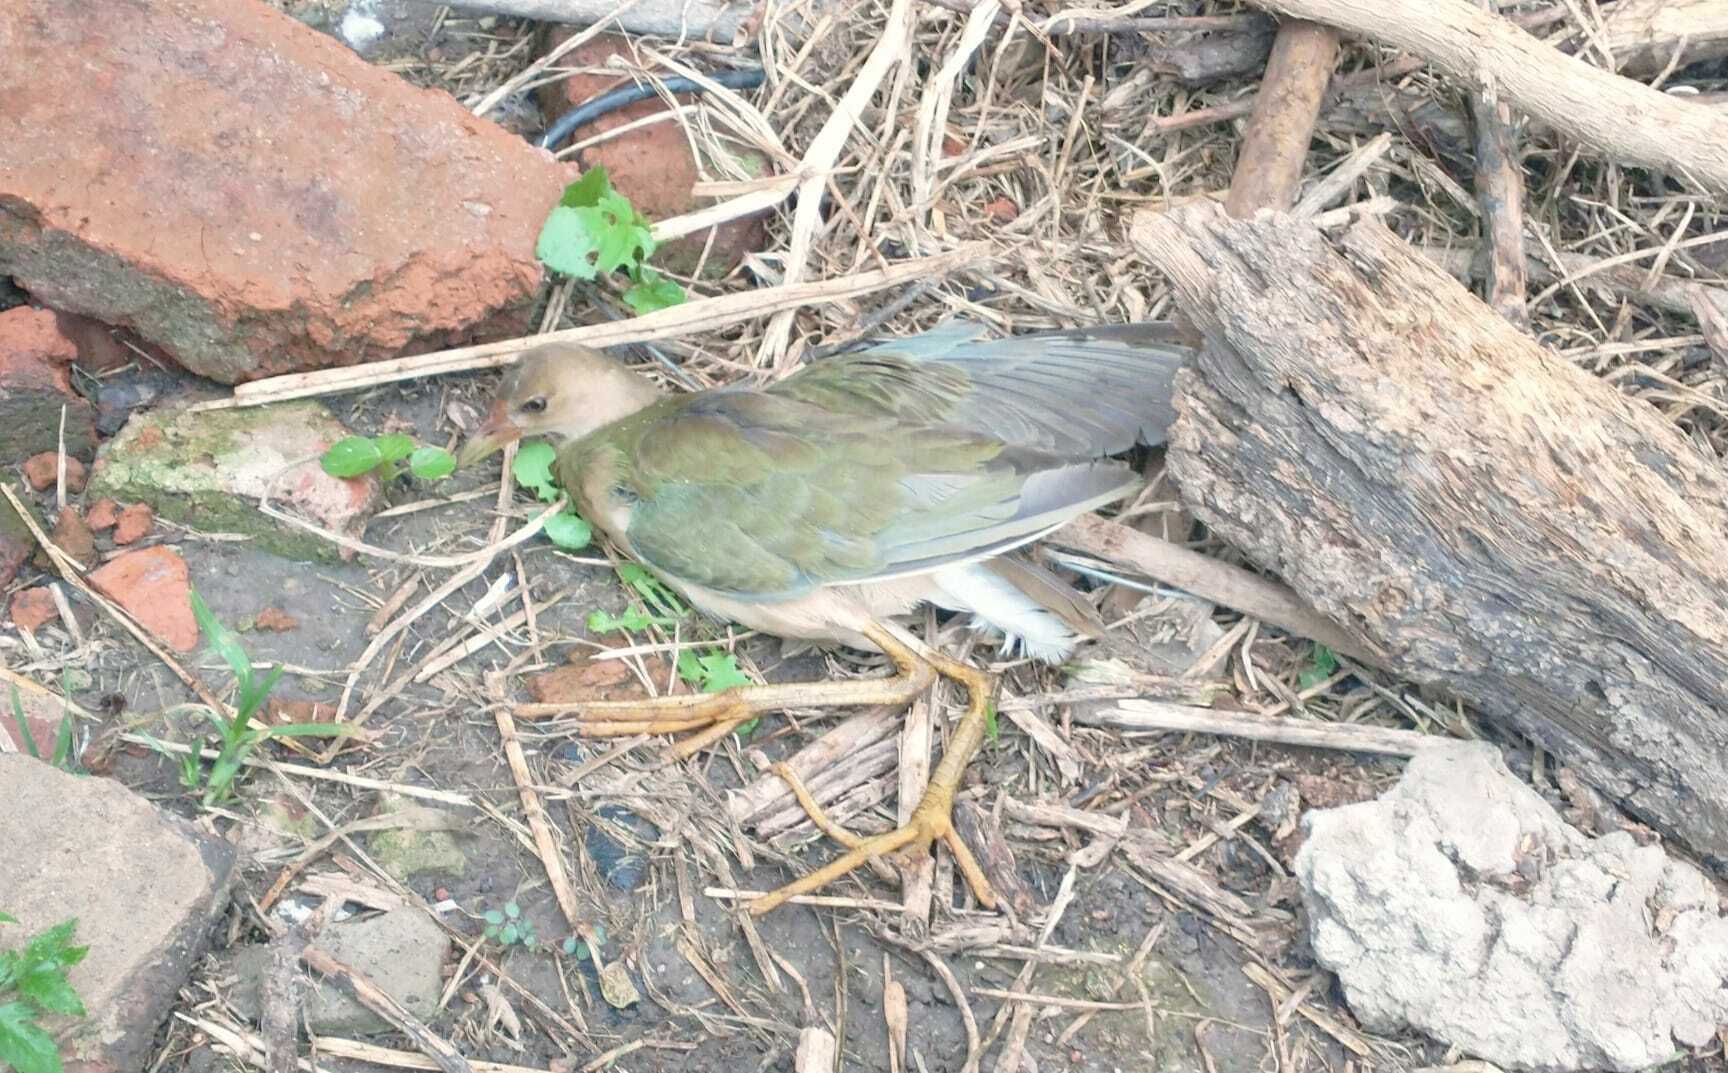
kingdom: Animalia
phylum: Chordata
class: Aves
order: Gruiformes
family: Rallidae
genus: Porphyrio
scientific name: Porphyrio martinica
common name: Purple gallinule
